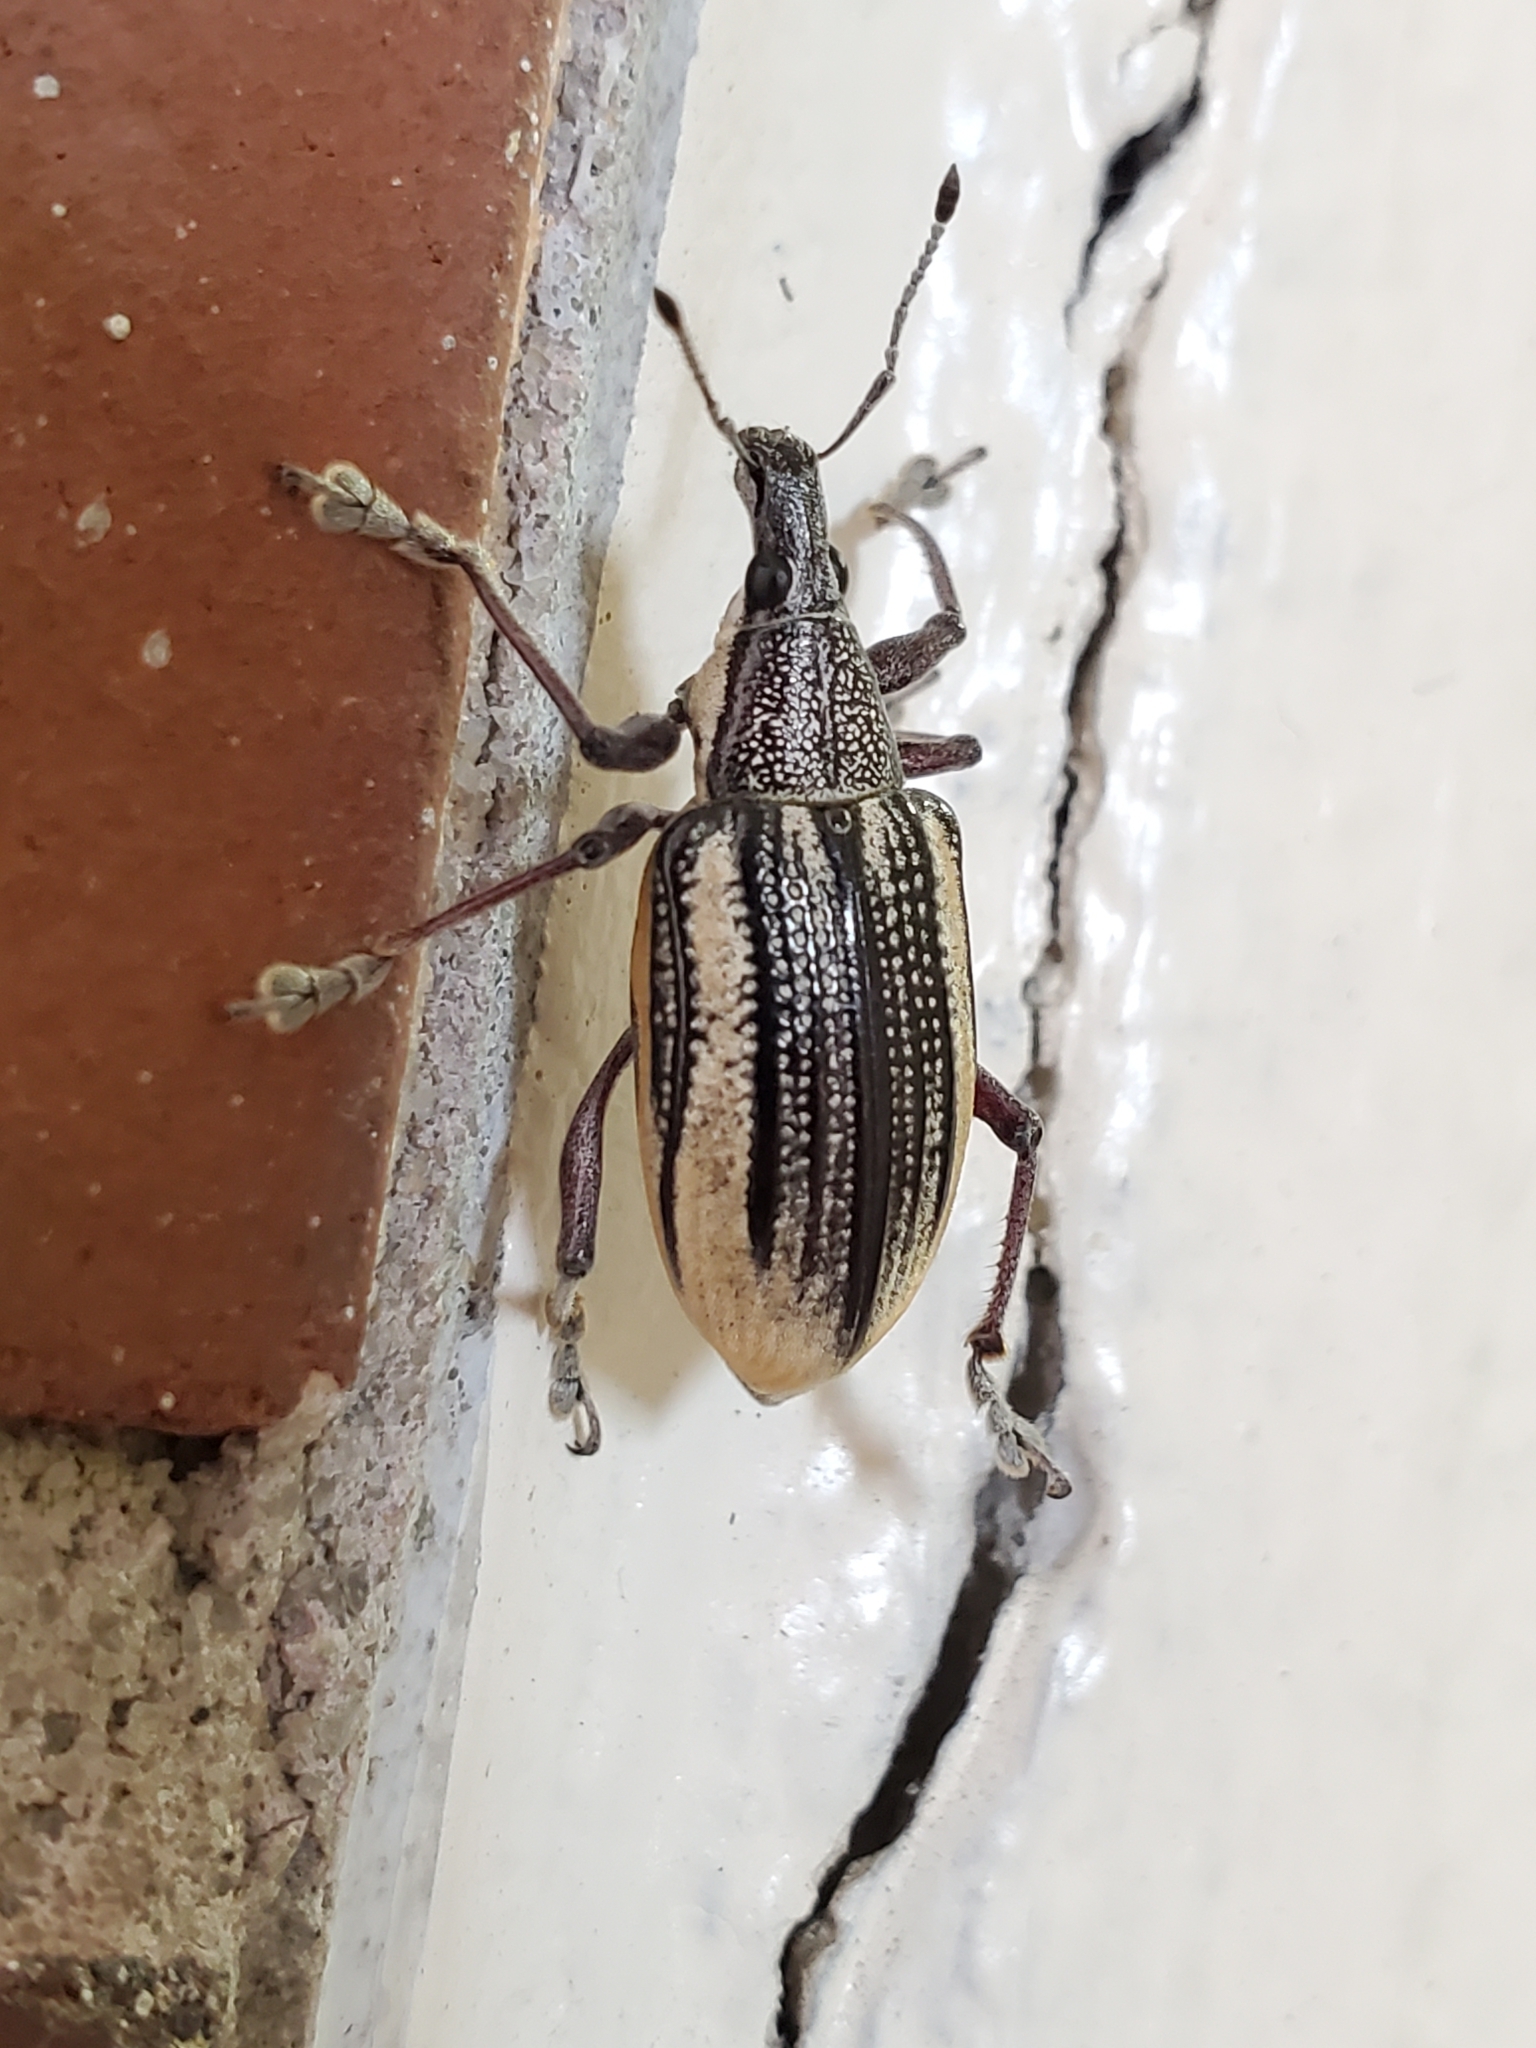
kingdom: Animalia
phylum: Arthropoda
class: Insecta
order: Coleoptera
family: Curculionidae
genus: Diaprepes
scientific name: Diaprepes abbreviatus
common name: Root weevil
